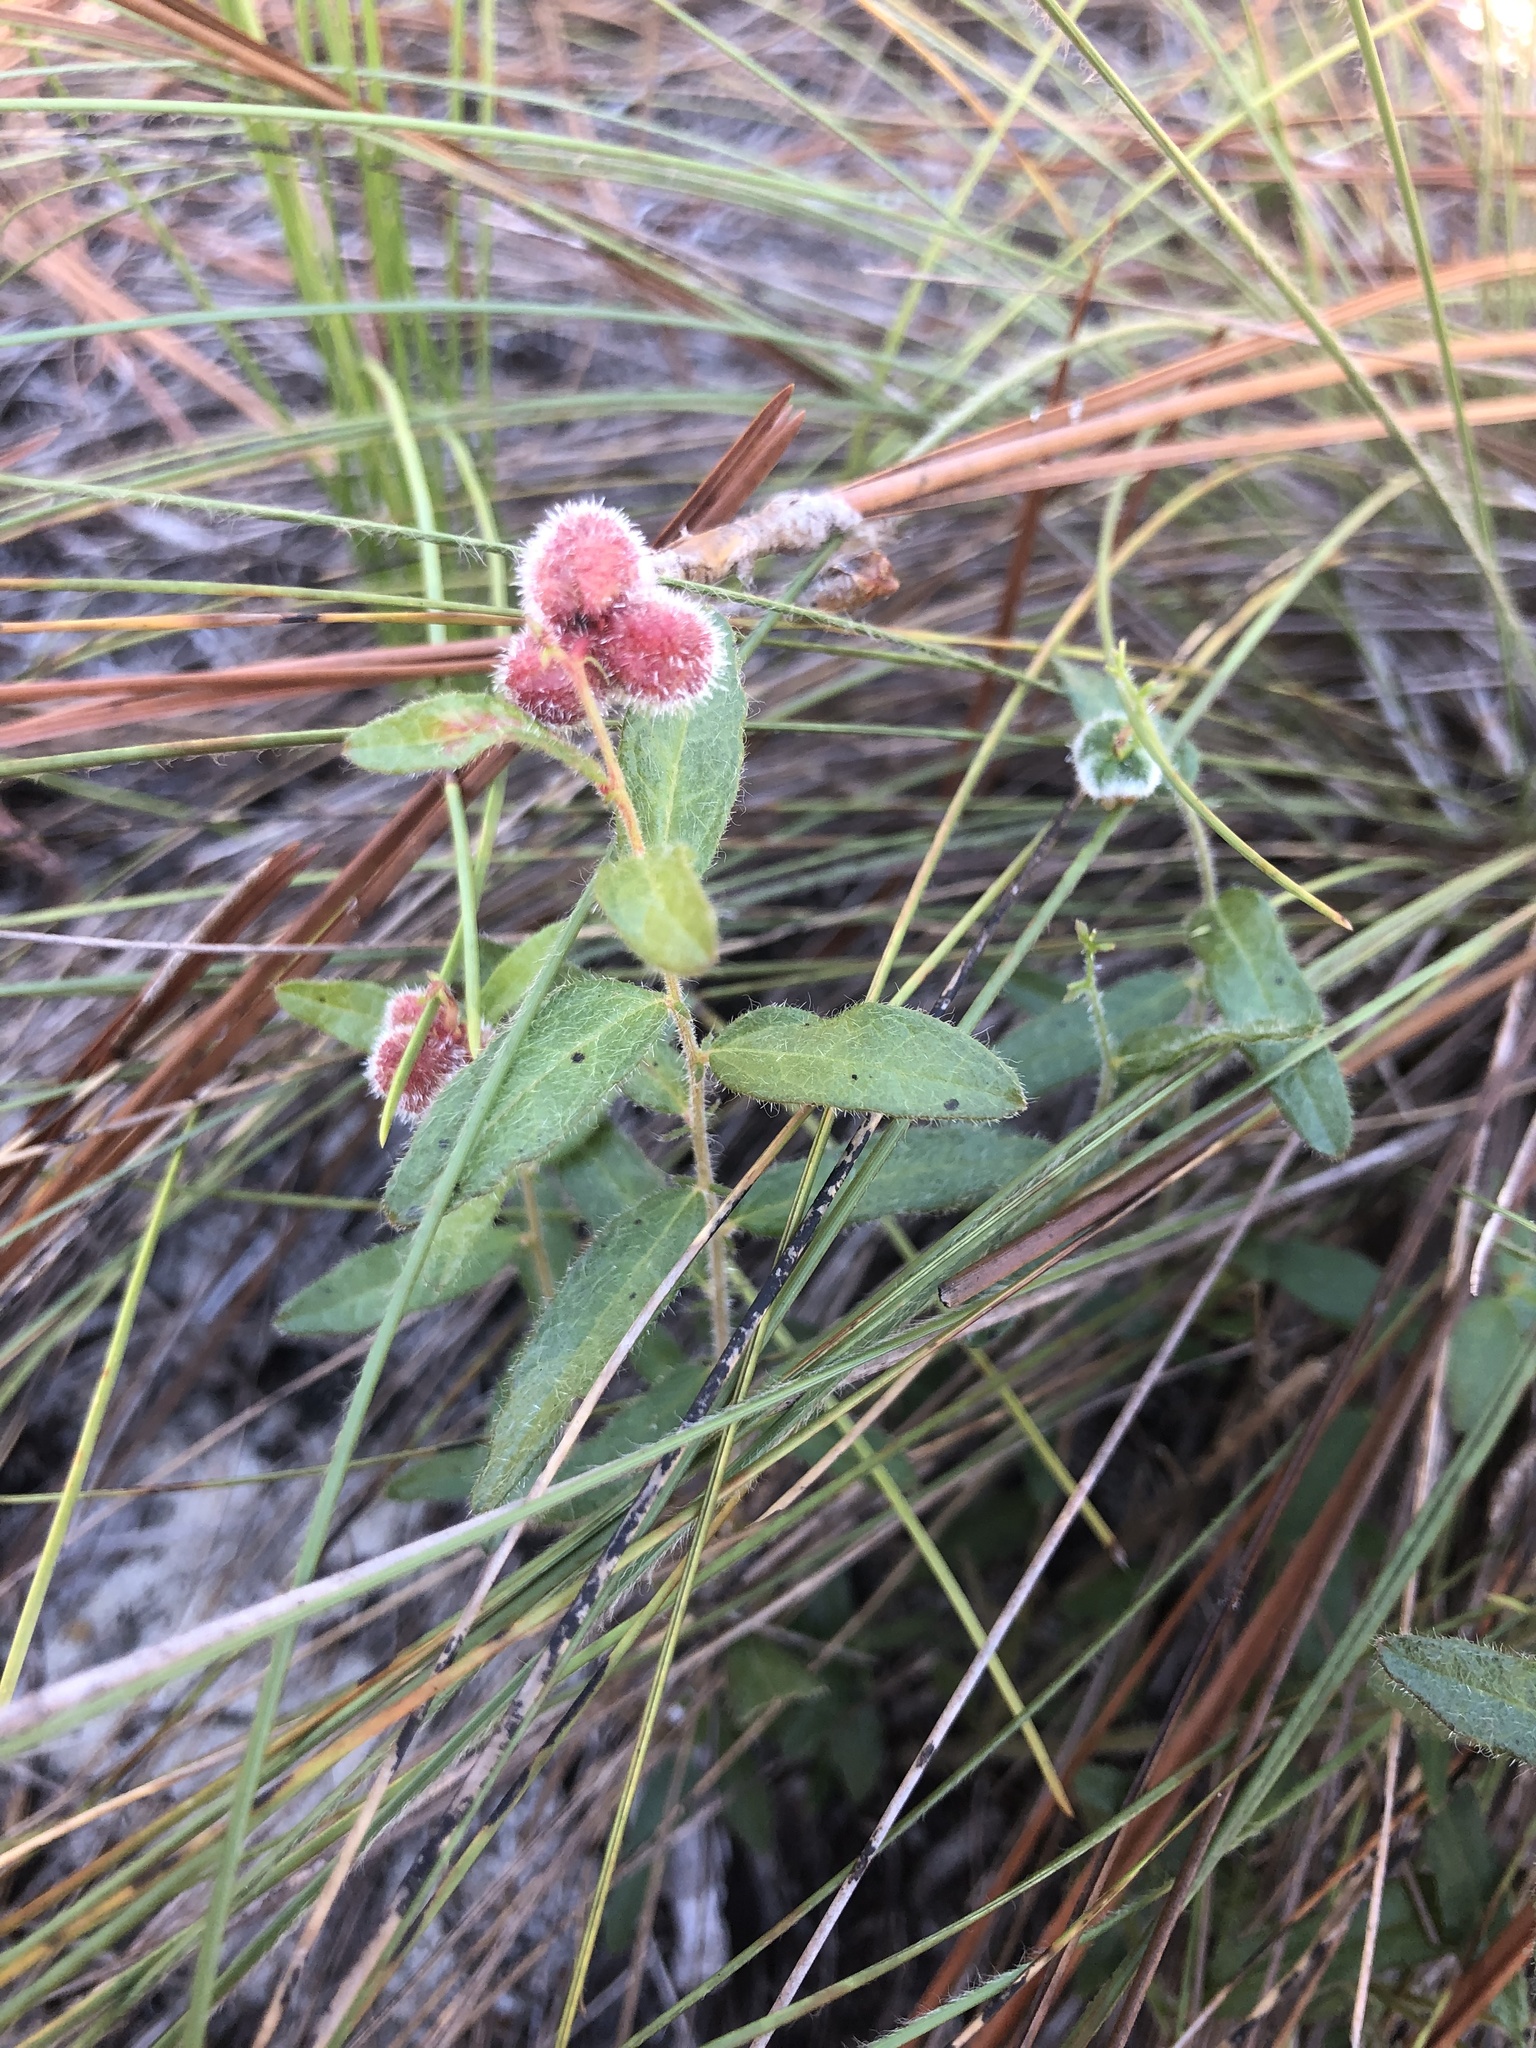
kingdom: Plantae
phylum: Tracheophyta
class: Magnoliopsida
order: Malpighiales
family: Euphorbiaceae
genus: Tragia
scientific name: Tragia urens
